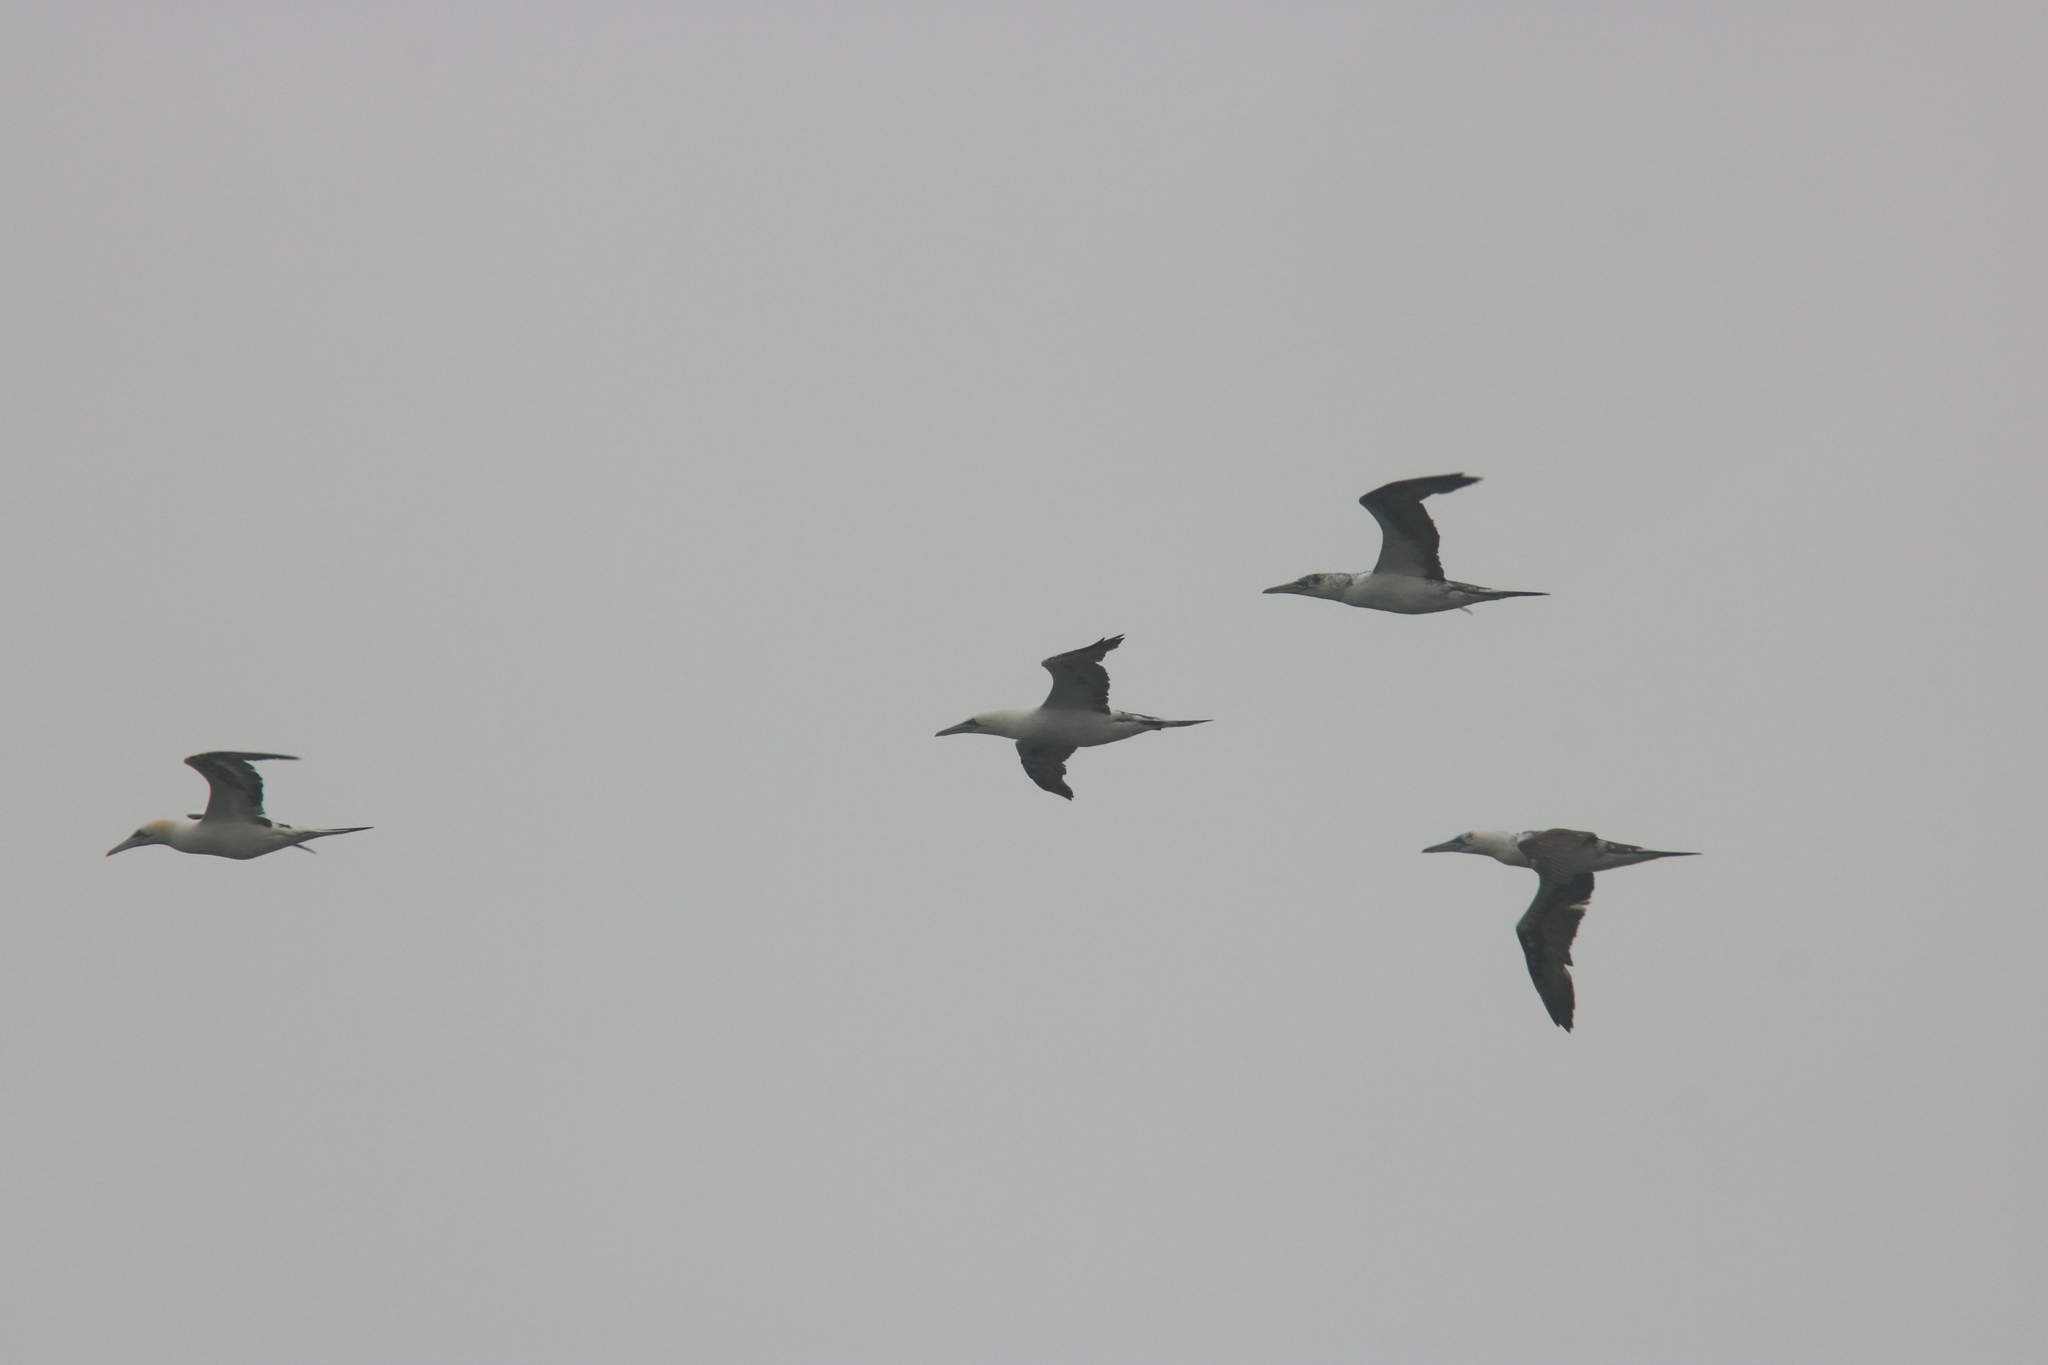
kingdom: Animalia
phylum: Chordata
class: Aves
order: Suliformes
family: Sulidae
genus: Morus
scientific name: Morus bassanus
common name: Northern gannet
